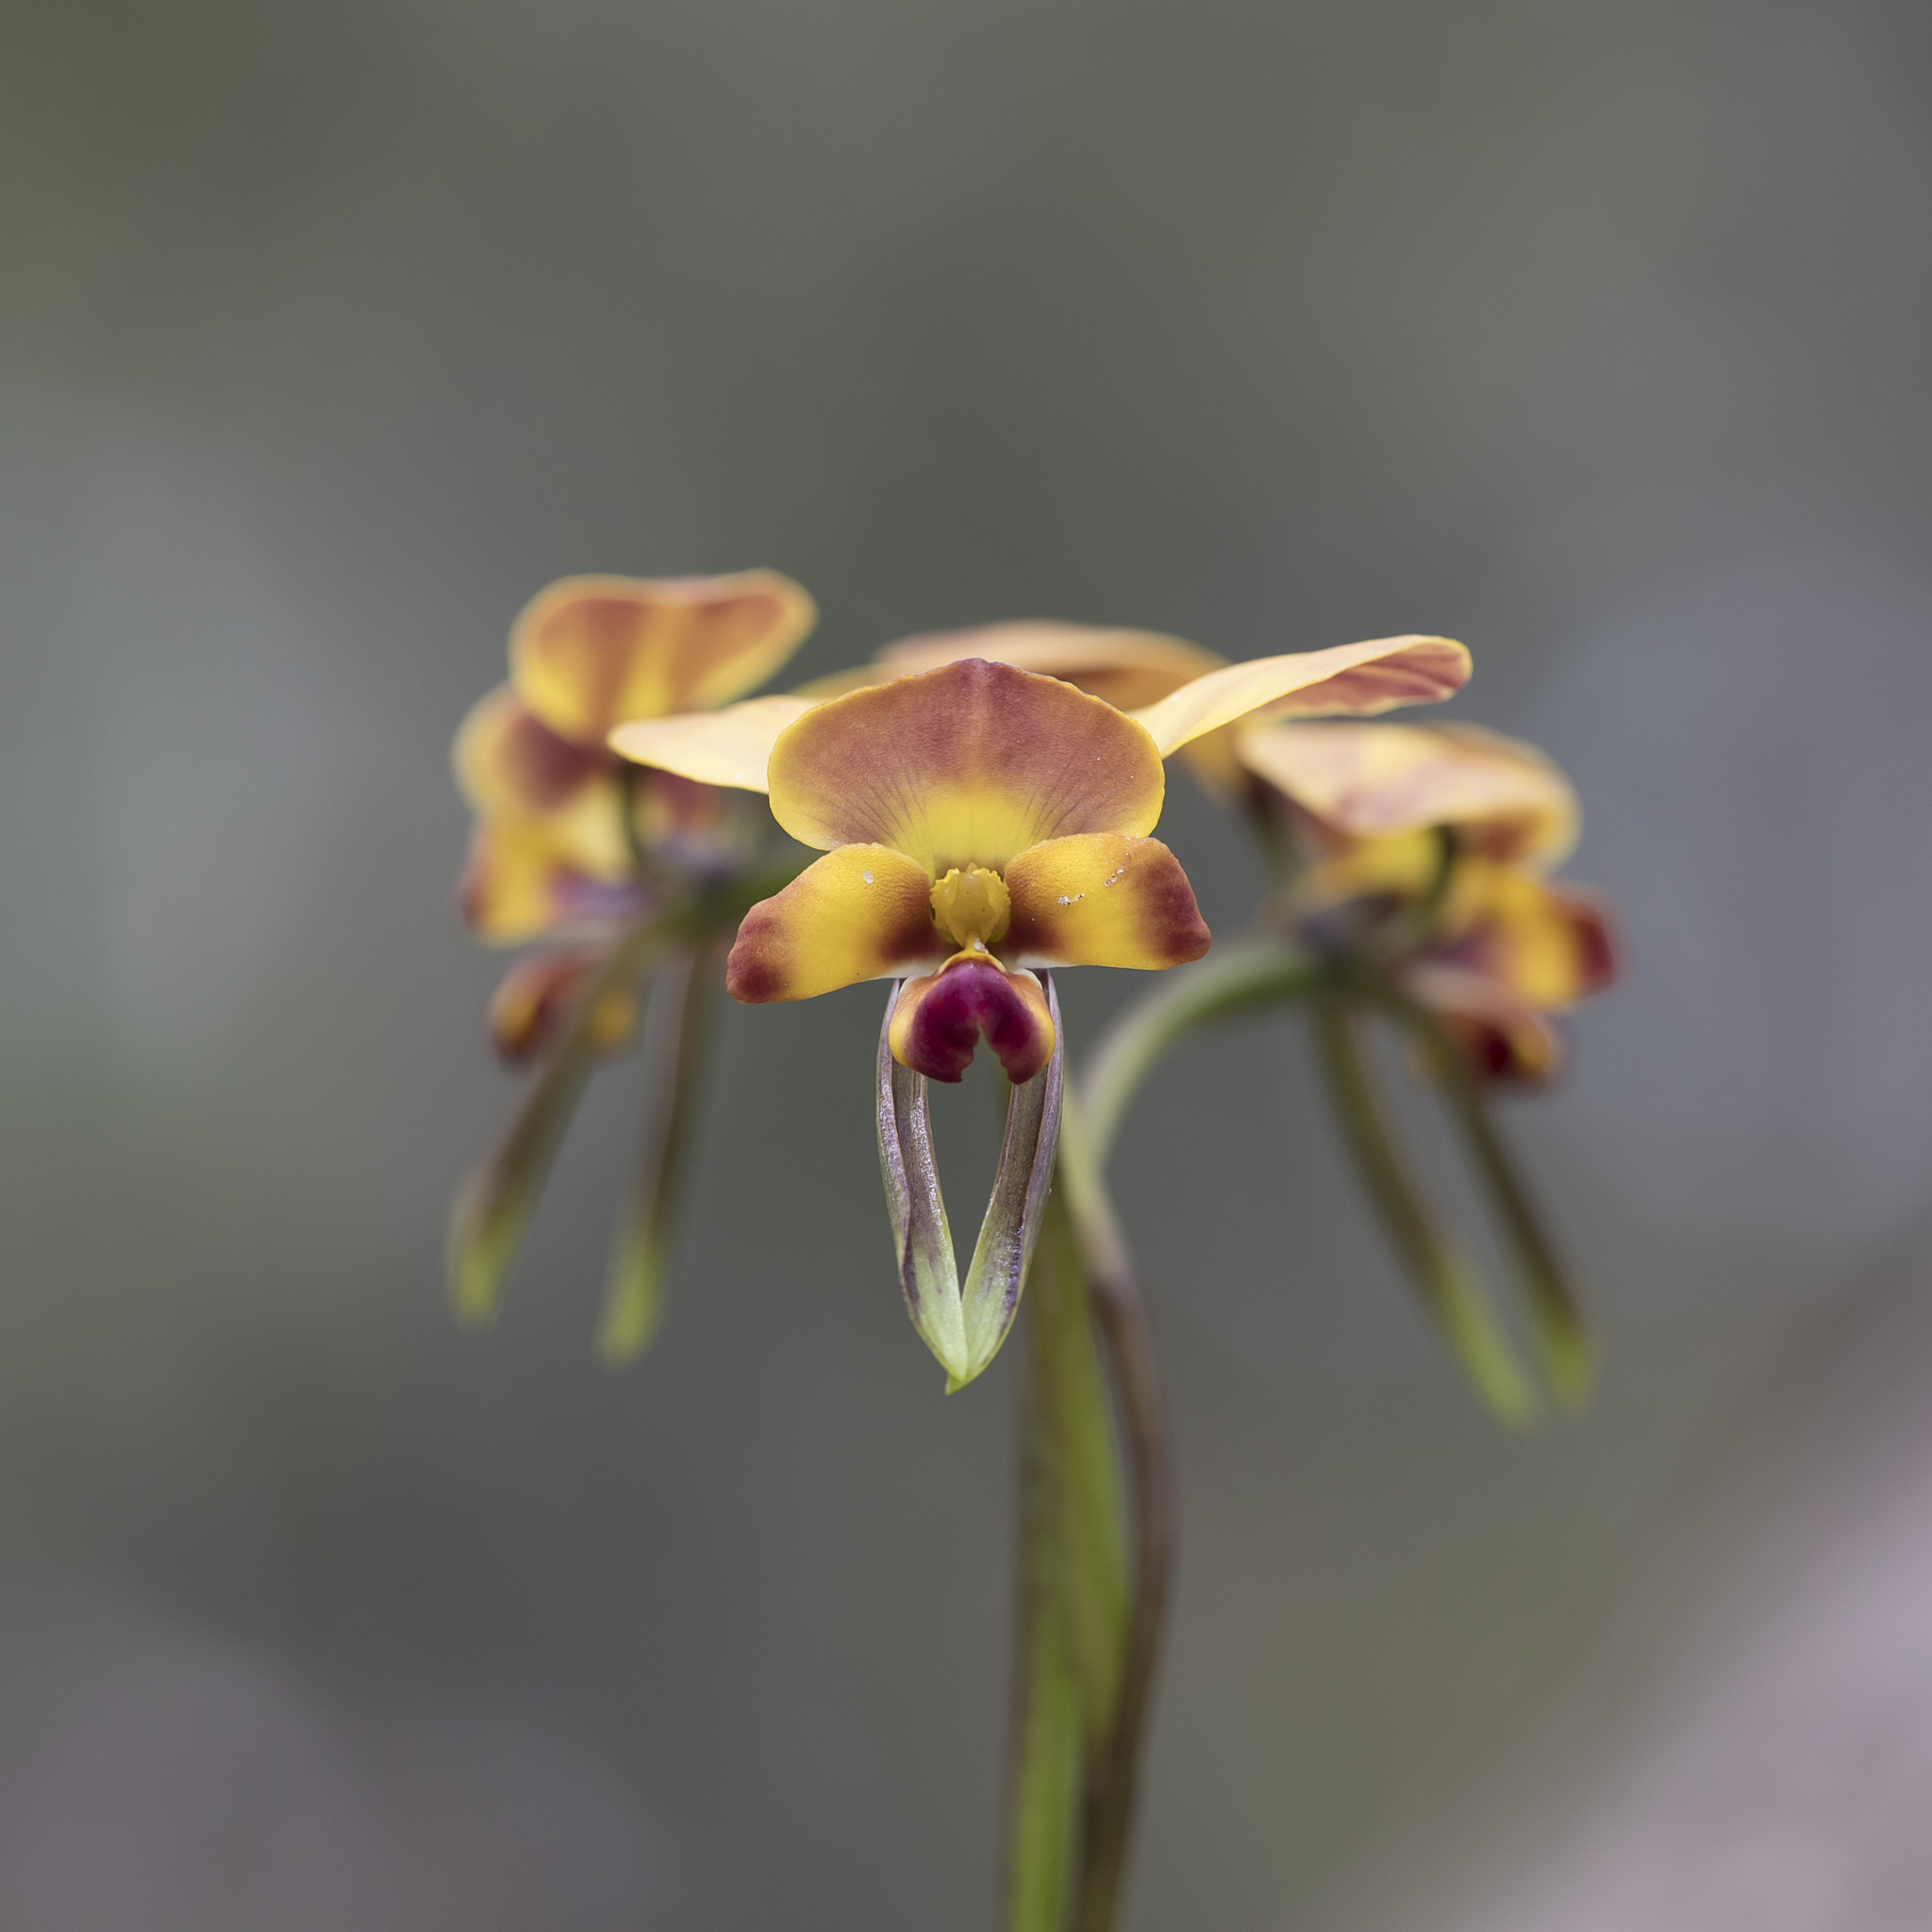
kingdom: Plantae
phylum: Tracheophyta
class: Liliopsida
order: Asparagales
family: Orchidaceae
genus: Diuris
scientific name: Diuris orientis
